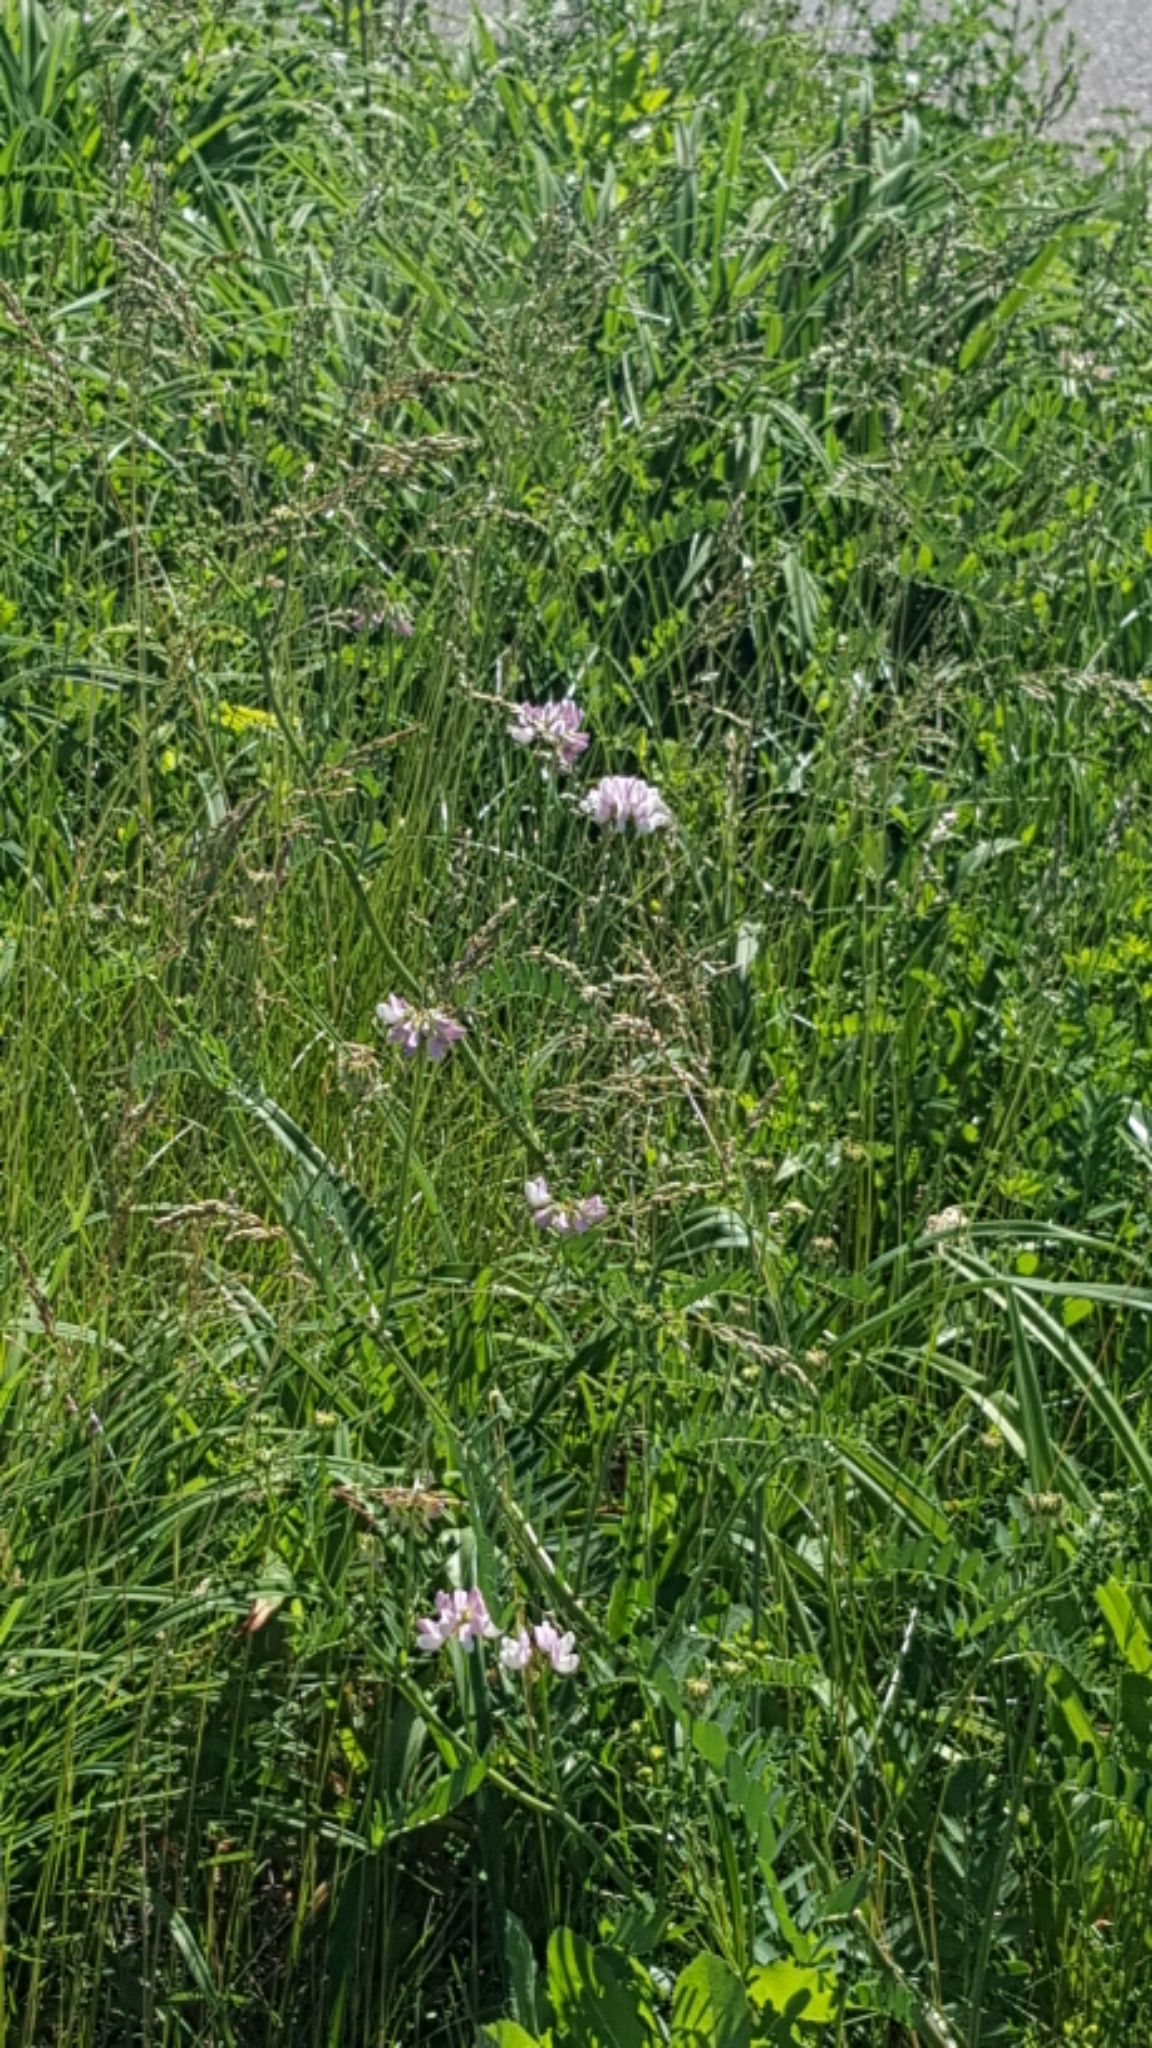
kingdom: Plantae
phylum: Tracheophyta
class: Magnoliopsida
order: Fabales
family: Fabaceae
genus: Coronilla
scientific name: Coronilla varia
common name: Crownvetch
